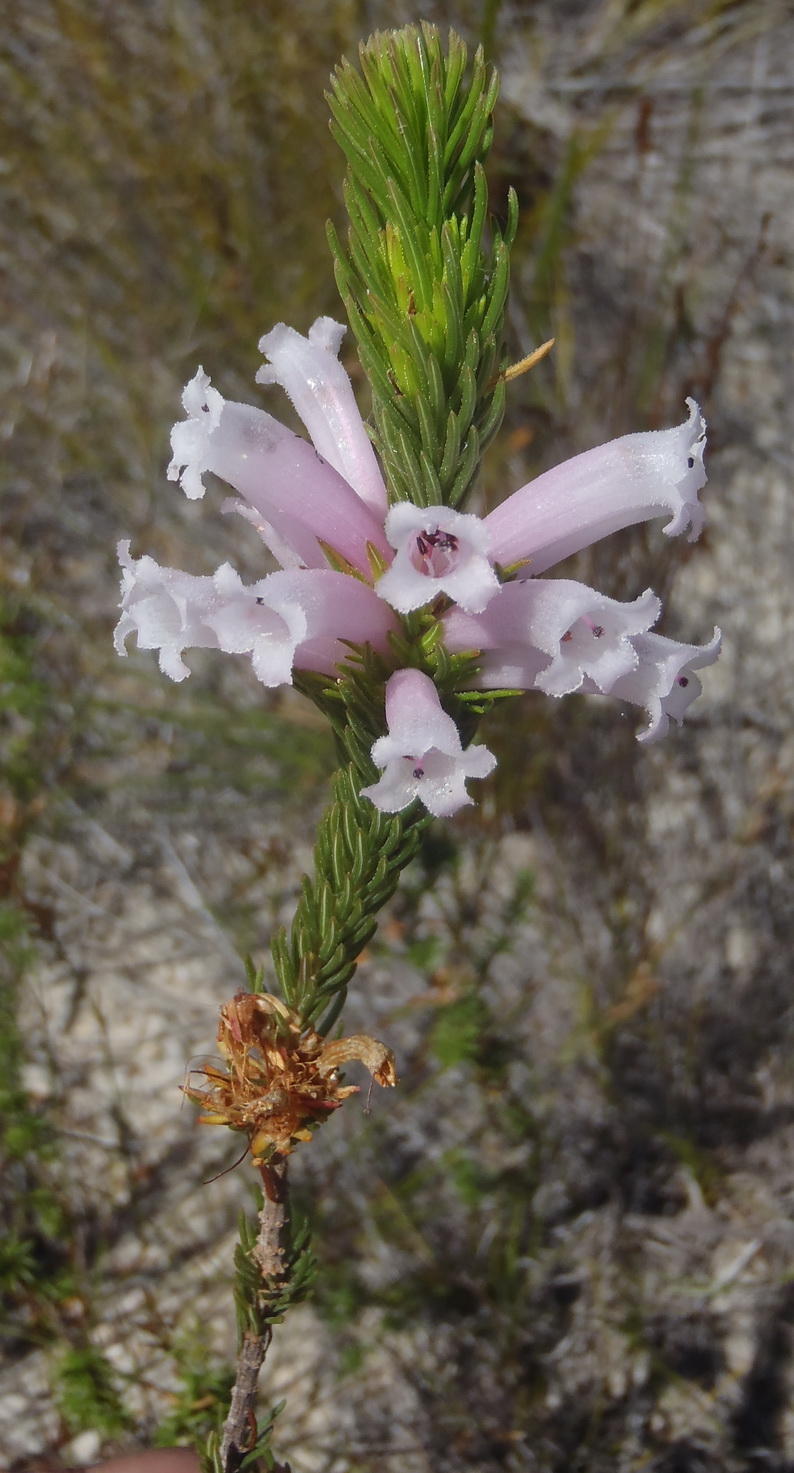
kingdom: Plantae
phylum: Tracheophyta
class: Magnoliopsida
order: Ericales
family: Ericaceae
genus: Erica
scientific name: Erica viscaria
